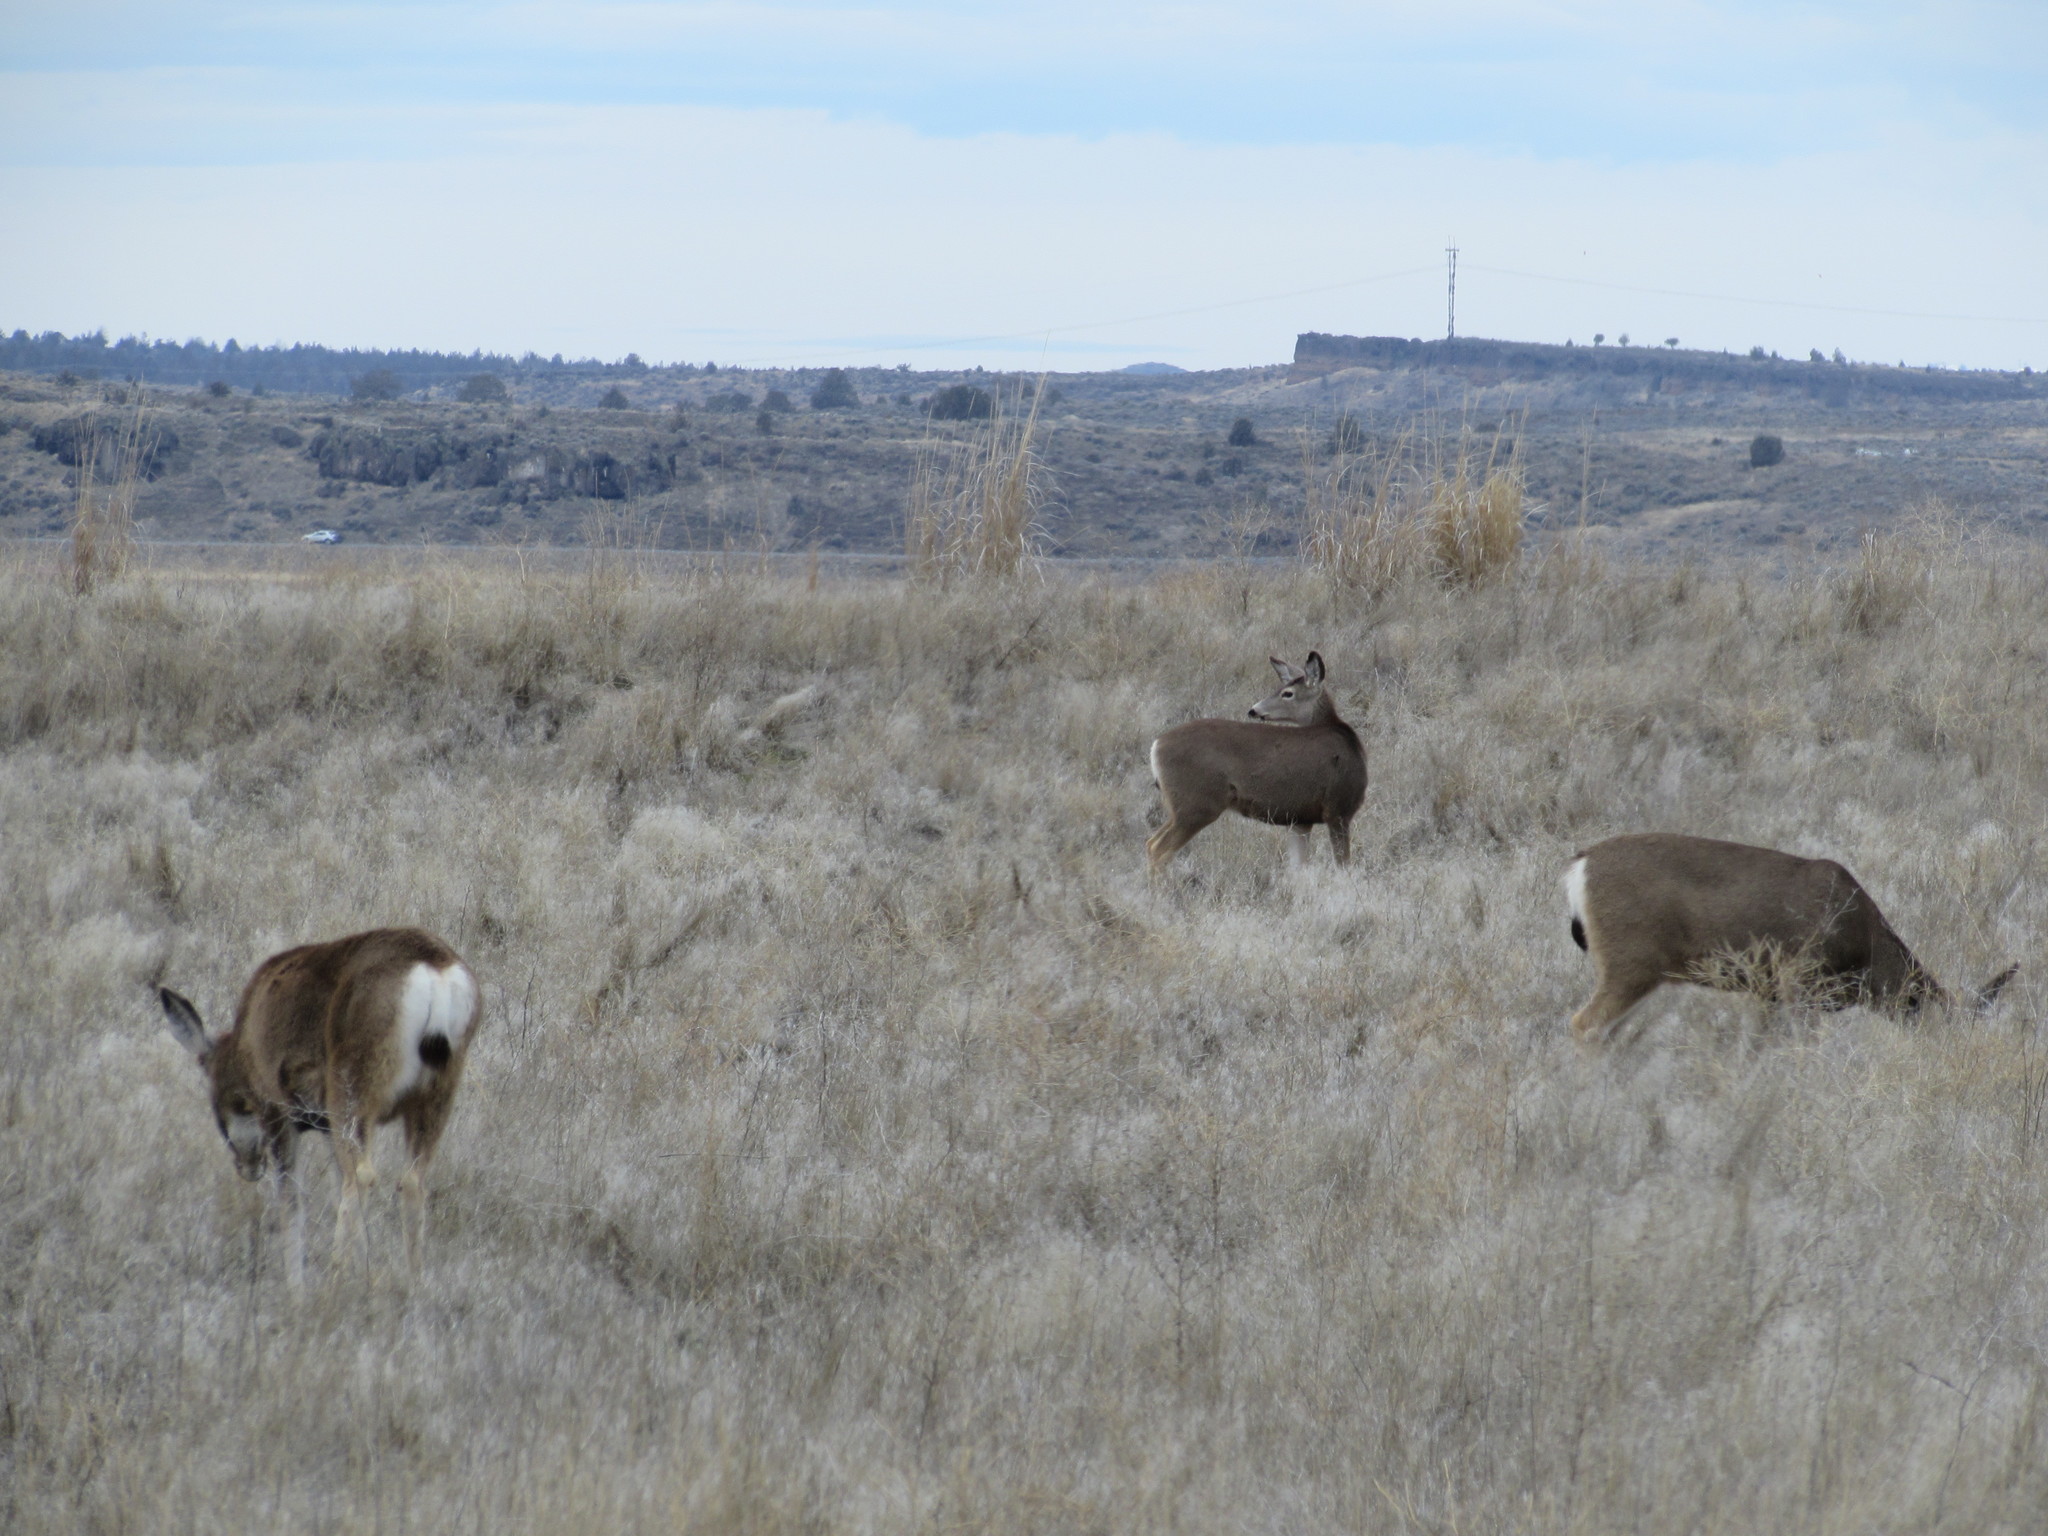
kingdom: Animalia
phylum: Chordata
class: Mammalia
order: Artiodactyla
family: Cervidae
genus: Odocoileus
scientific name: Odocoileus hemionus
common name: Mule deer
